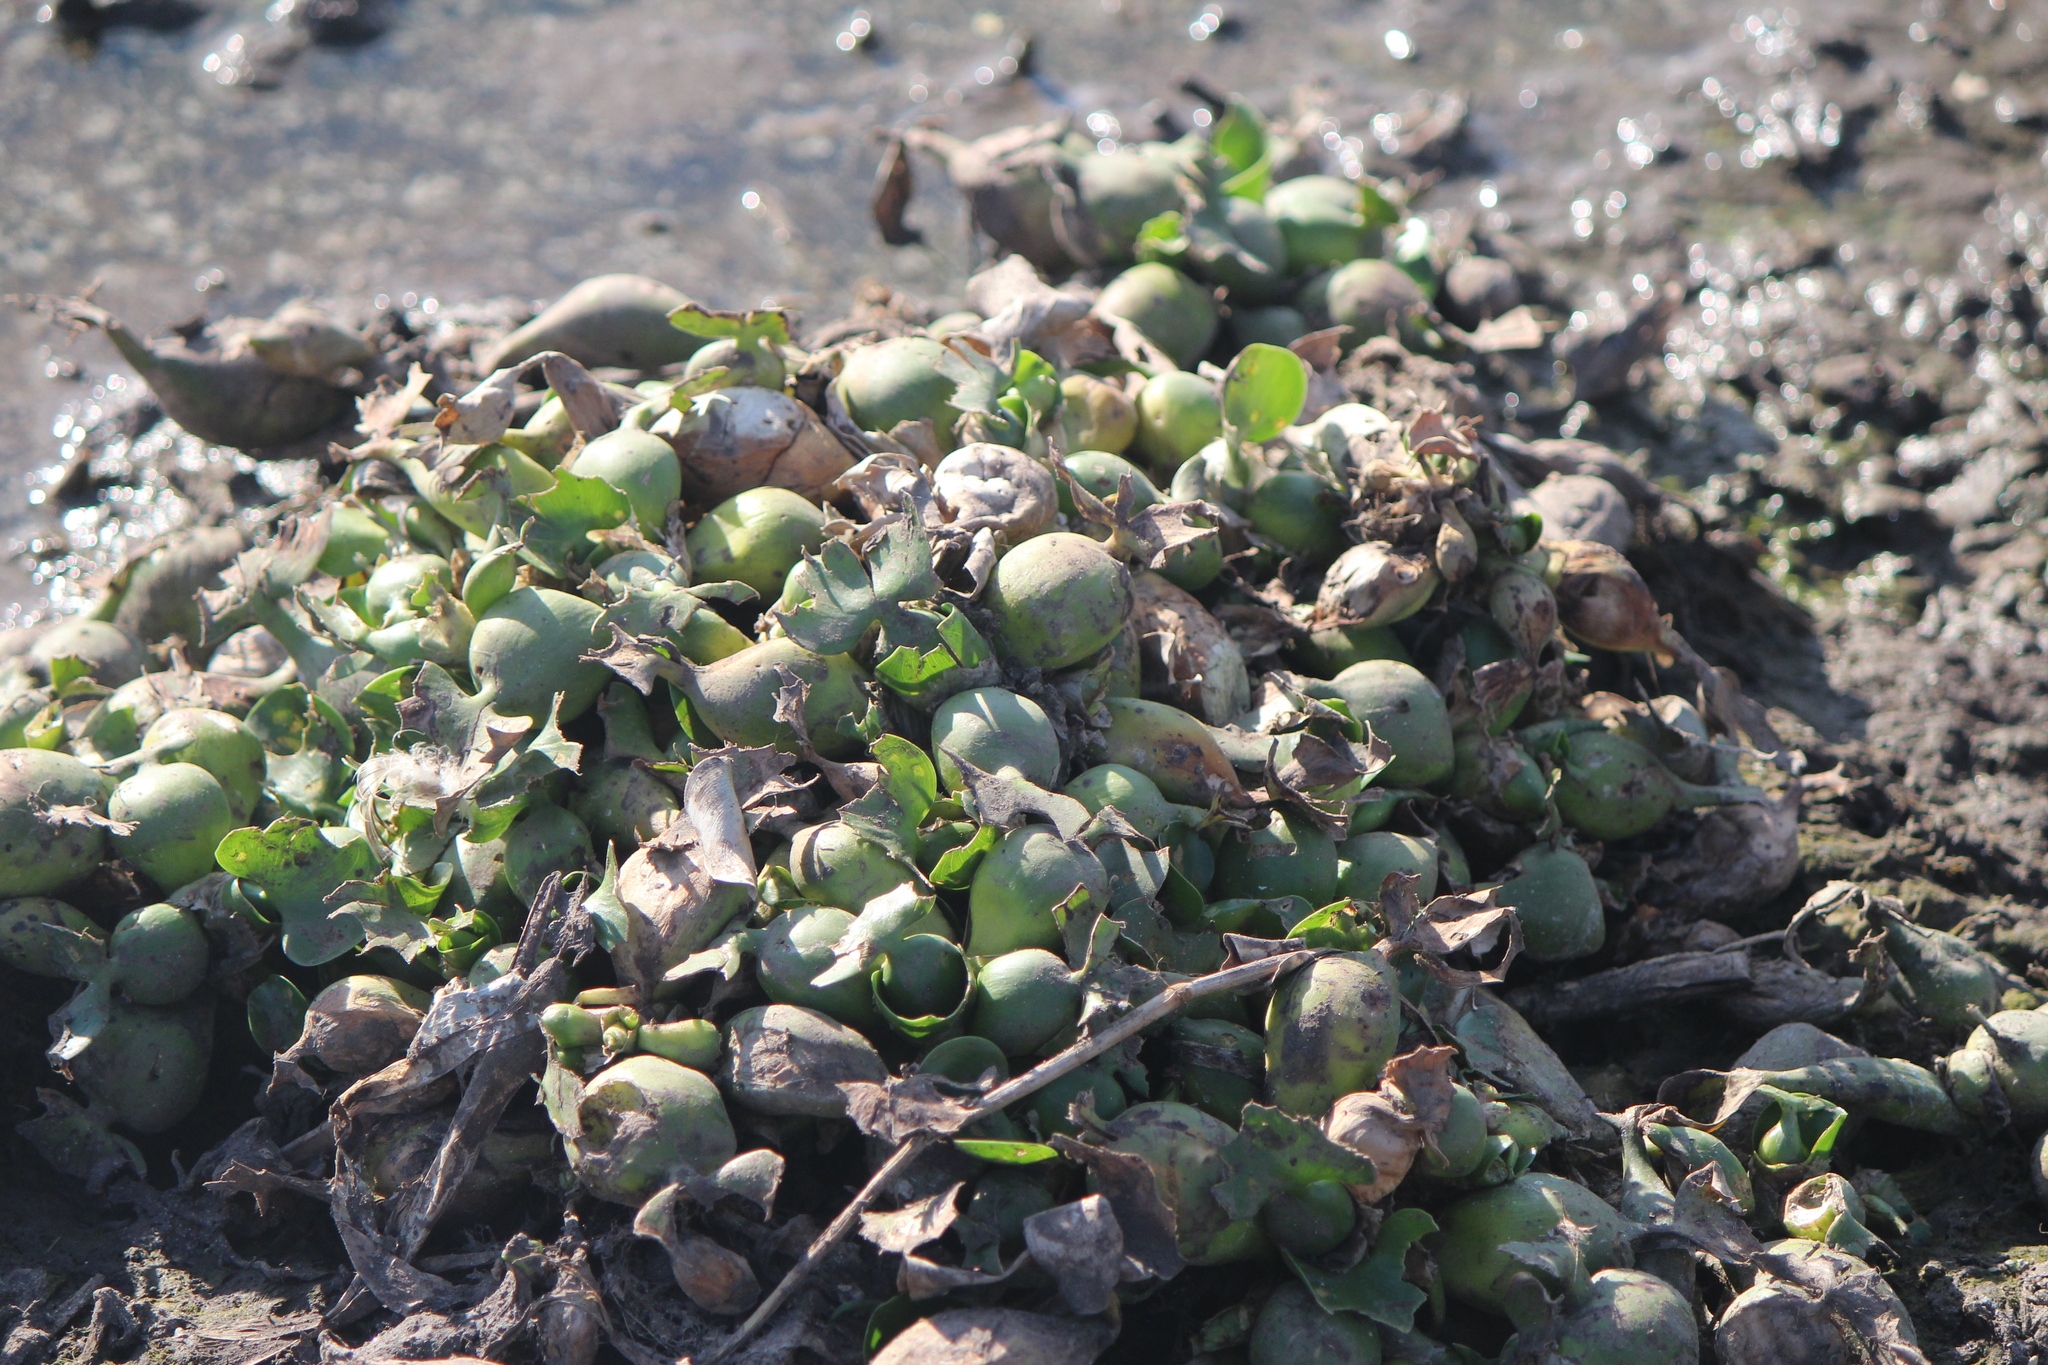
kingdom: Plantae
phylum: Tracheophyta
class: Liliopsida
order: Commelinales
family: Pontederiaceae
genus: Pontederia
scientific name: Pontederia crassipes
